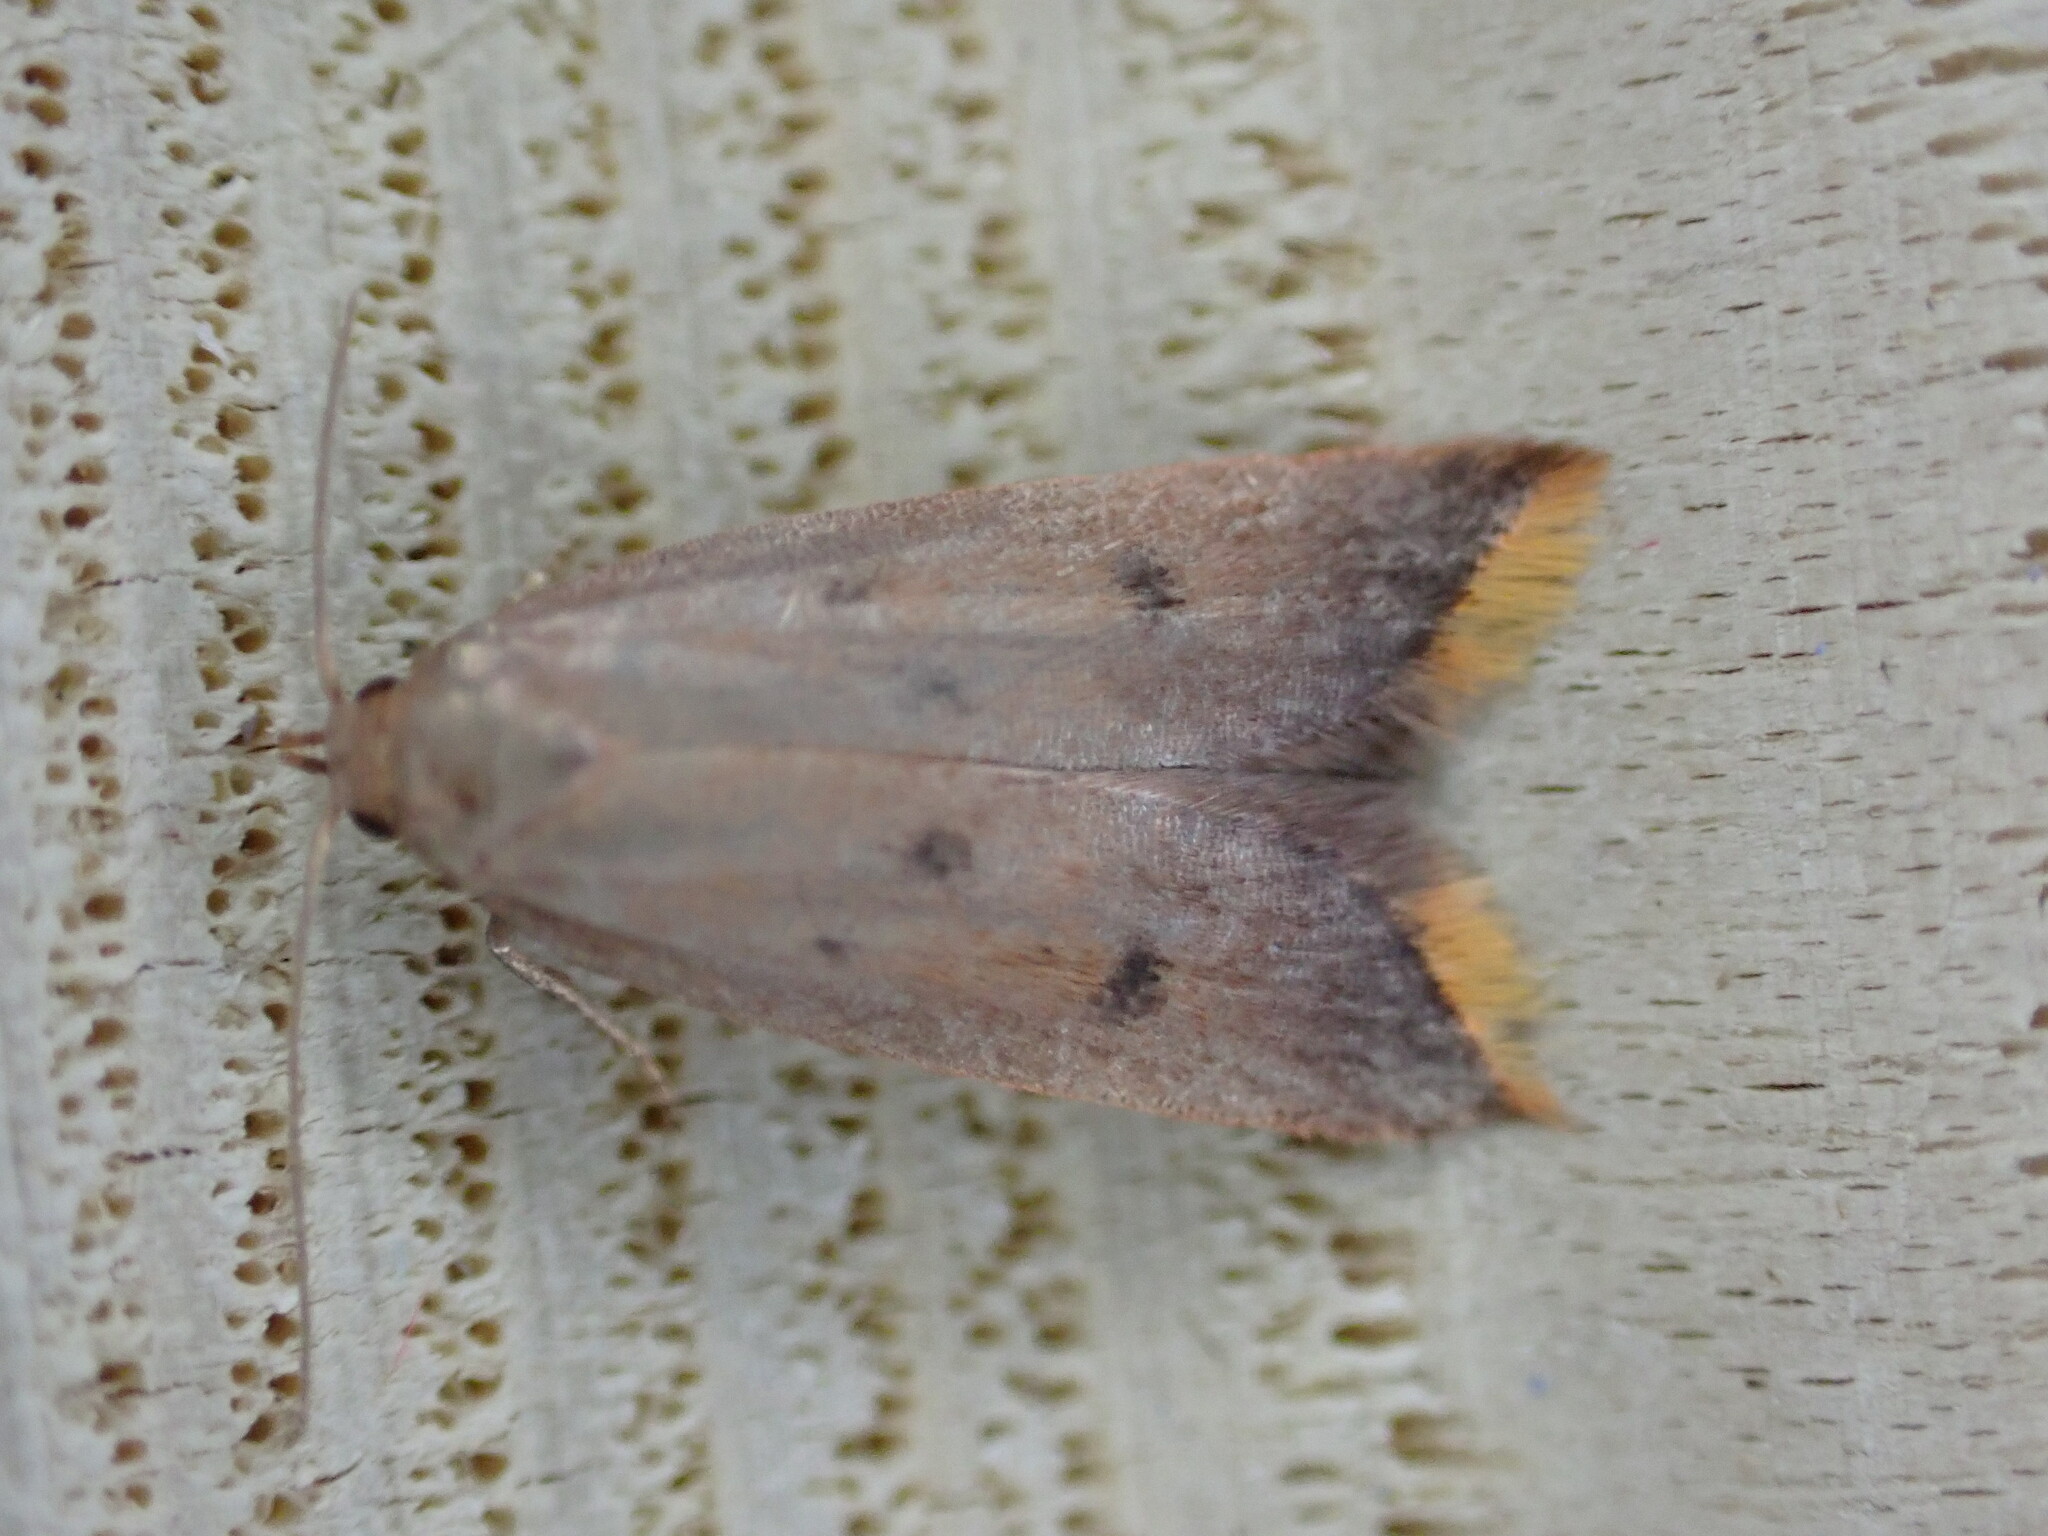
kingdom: Animalia
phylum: Arthropoda
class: Insecta
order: Lepidoptera
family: Oecophoridae
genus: Tachystola
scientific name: Tachystola acroxantha
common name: Ruddy streak
